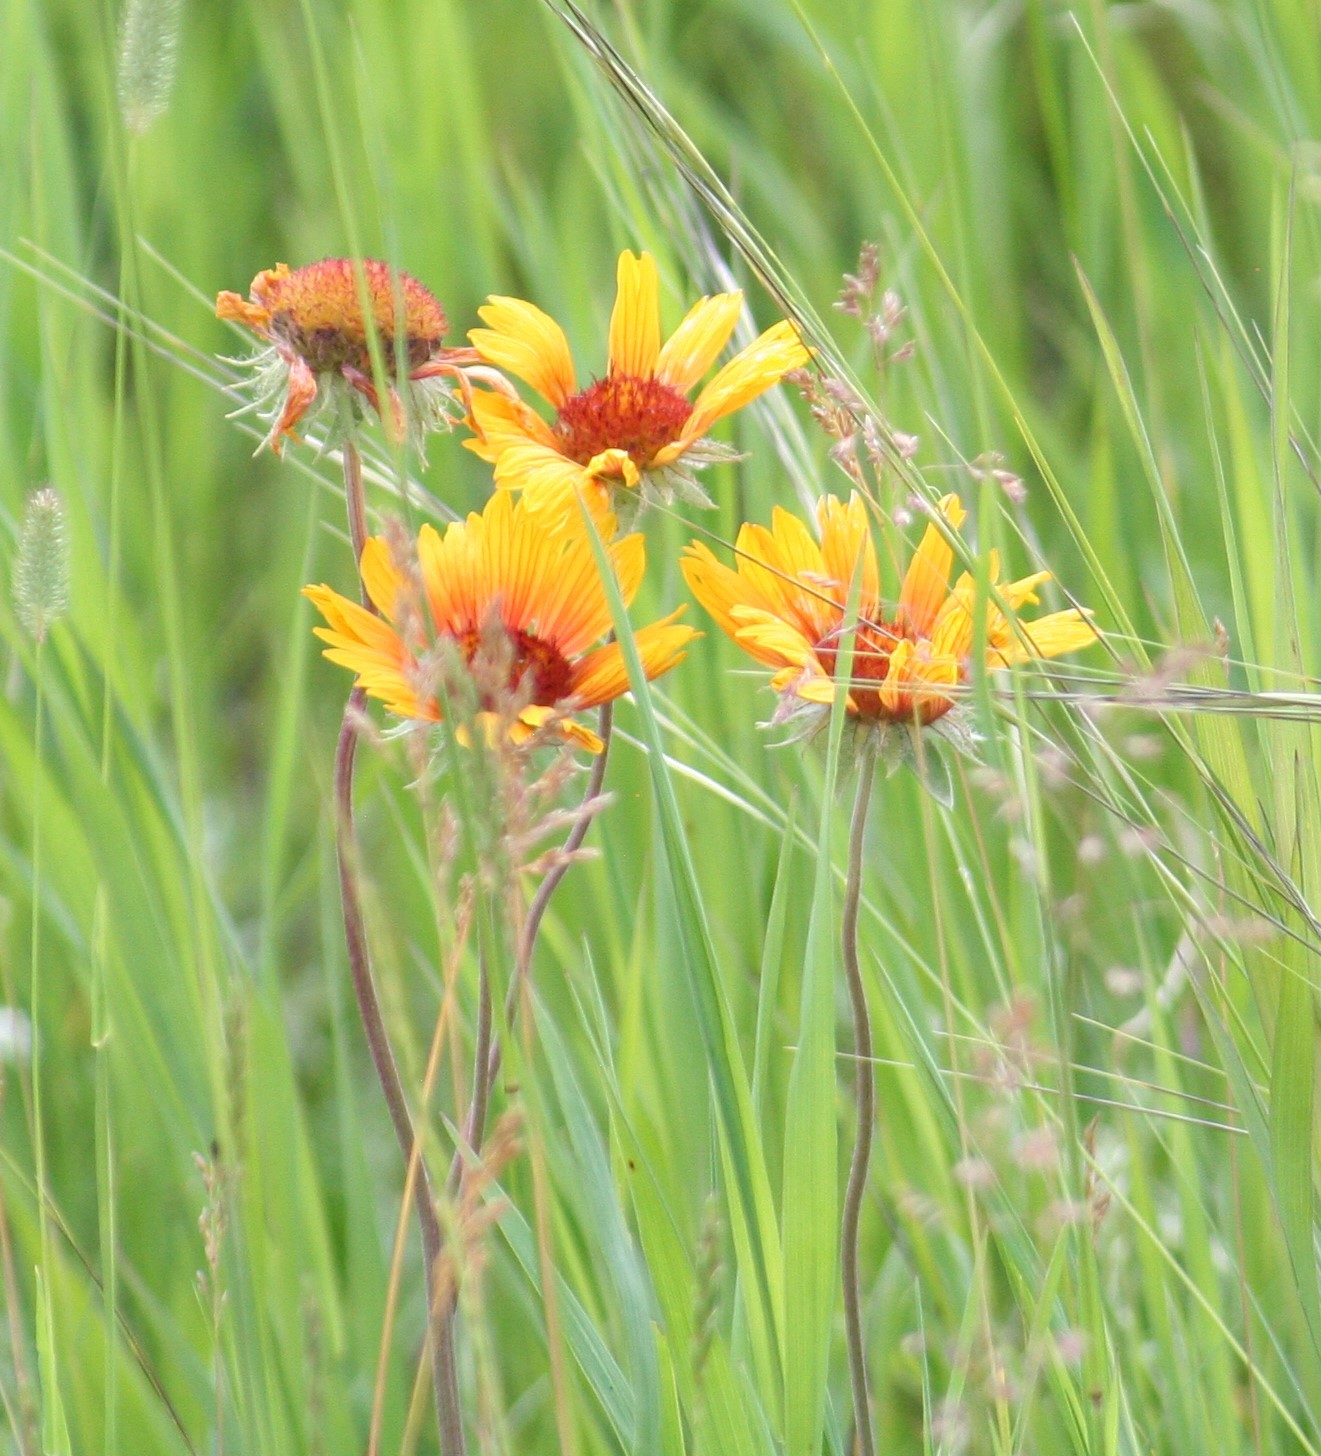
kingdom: Plantae
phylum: Tracheophyta
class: Magnoliopsida
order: Asterales
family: Asteraceae
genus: Gaillardia
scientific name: Gaillardia aristata
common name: Blanket-flower
